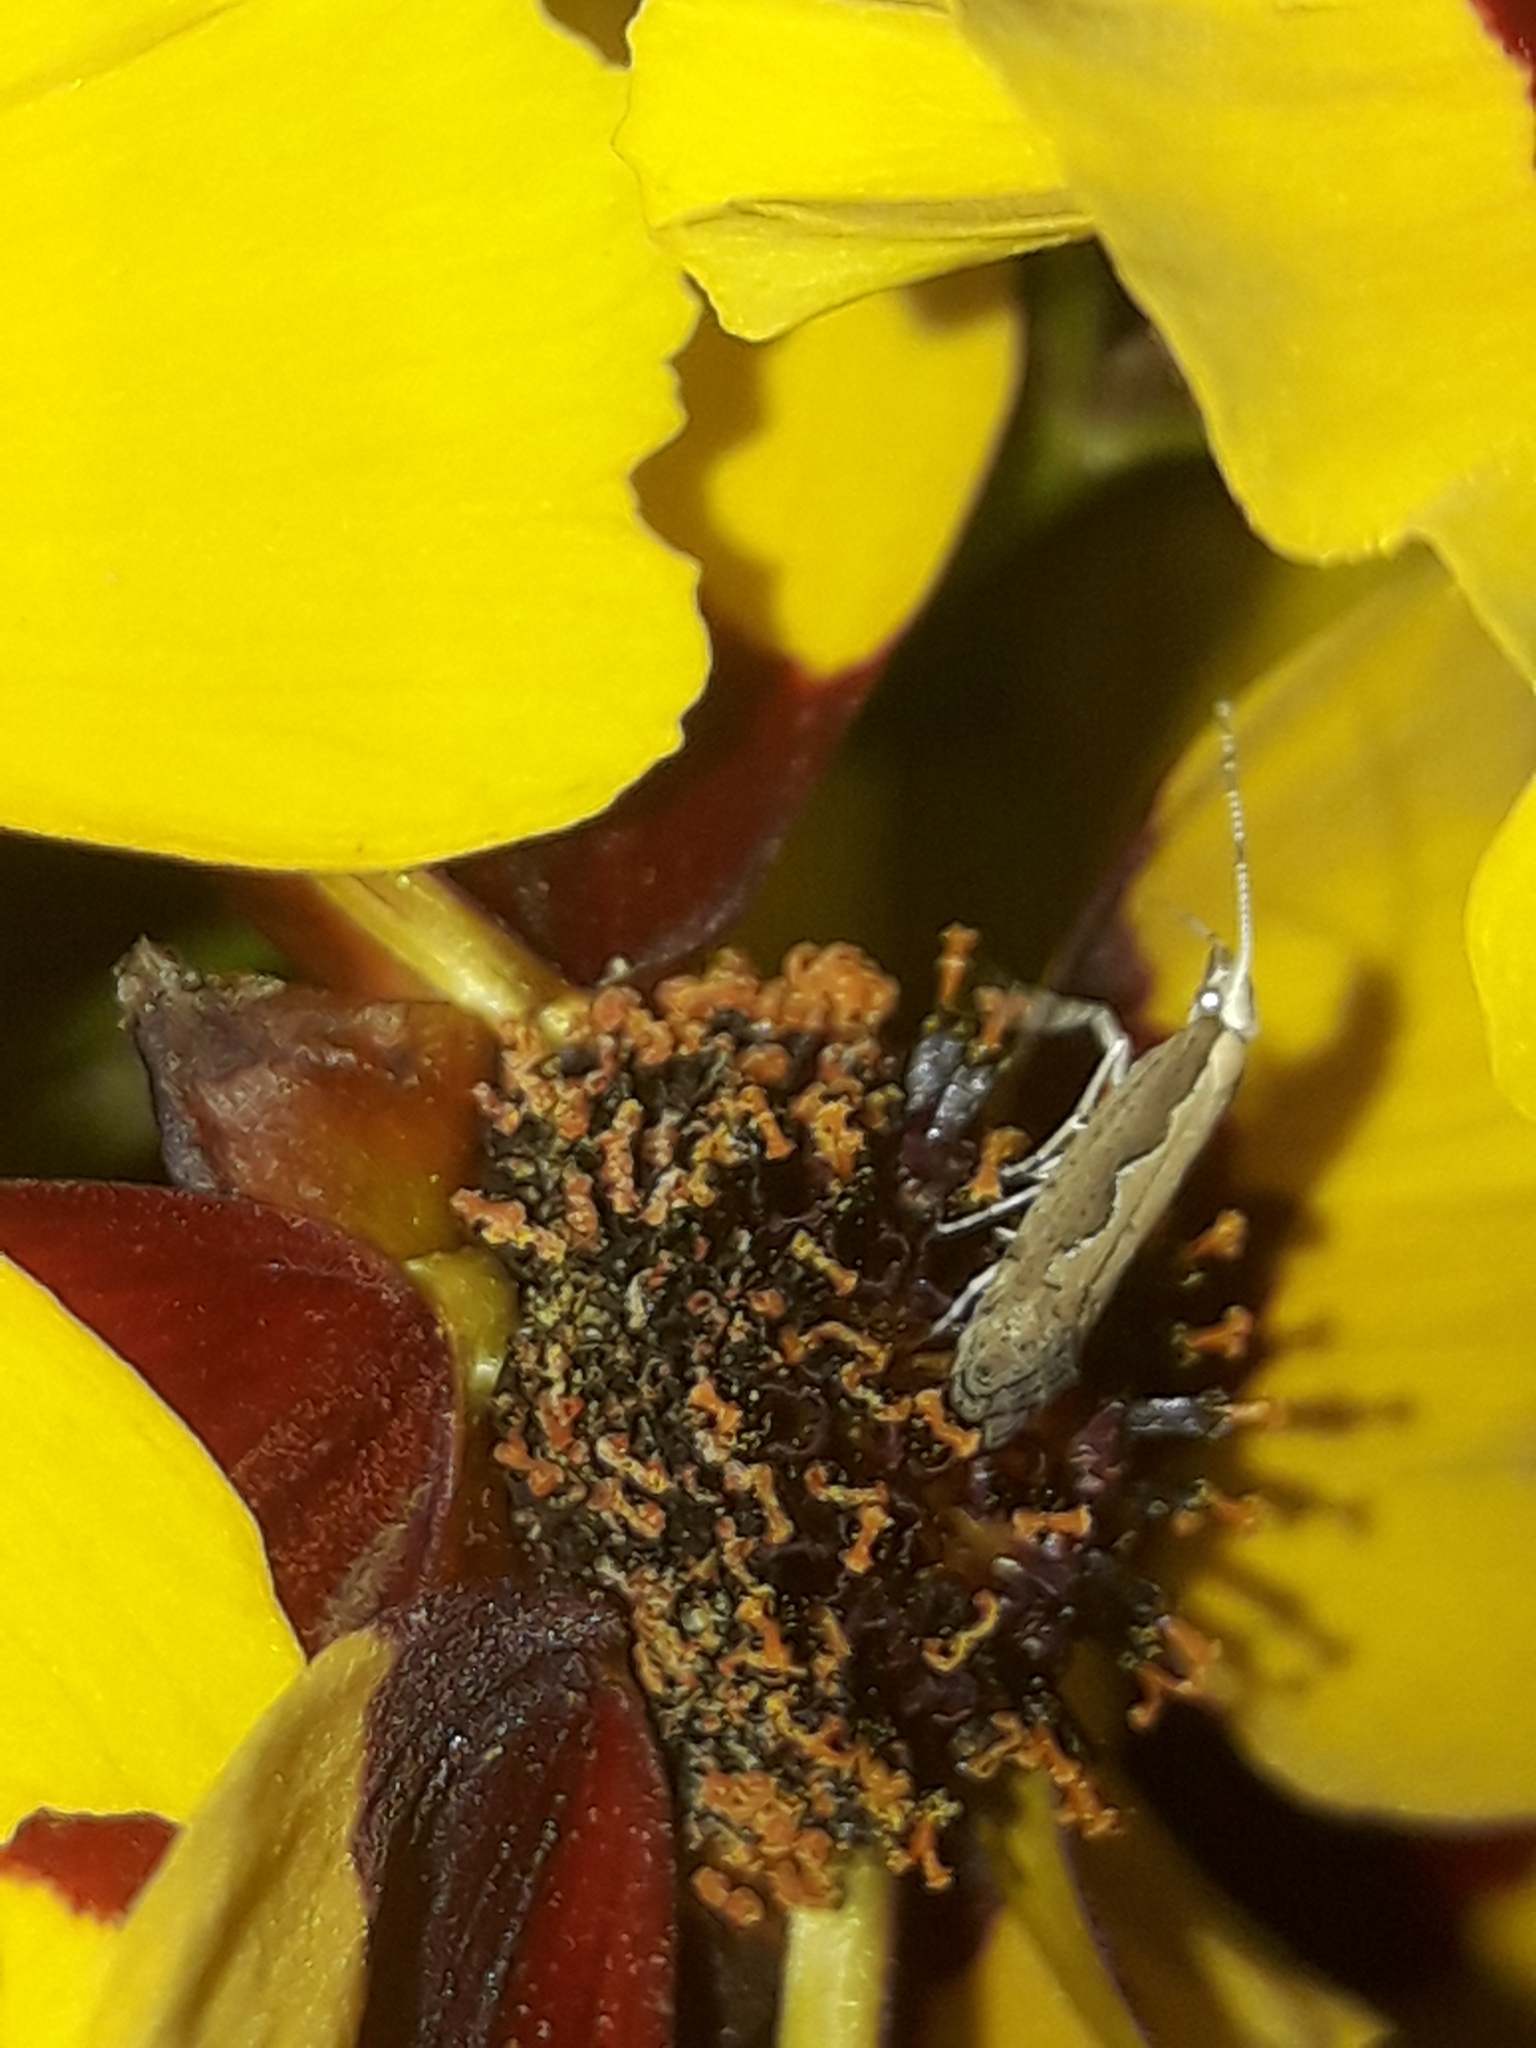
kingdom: Animalia
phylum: Arthropoda
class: Insecta
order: Lepidoptera
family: Plutellidae
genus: Plutella
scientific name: Plutella xylostella
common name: Diamond-back moth
